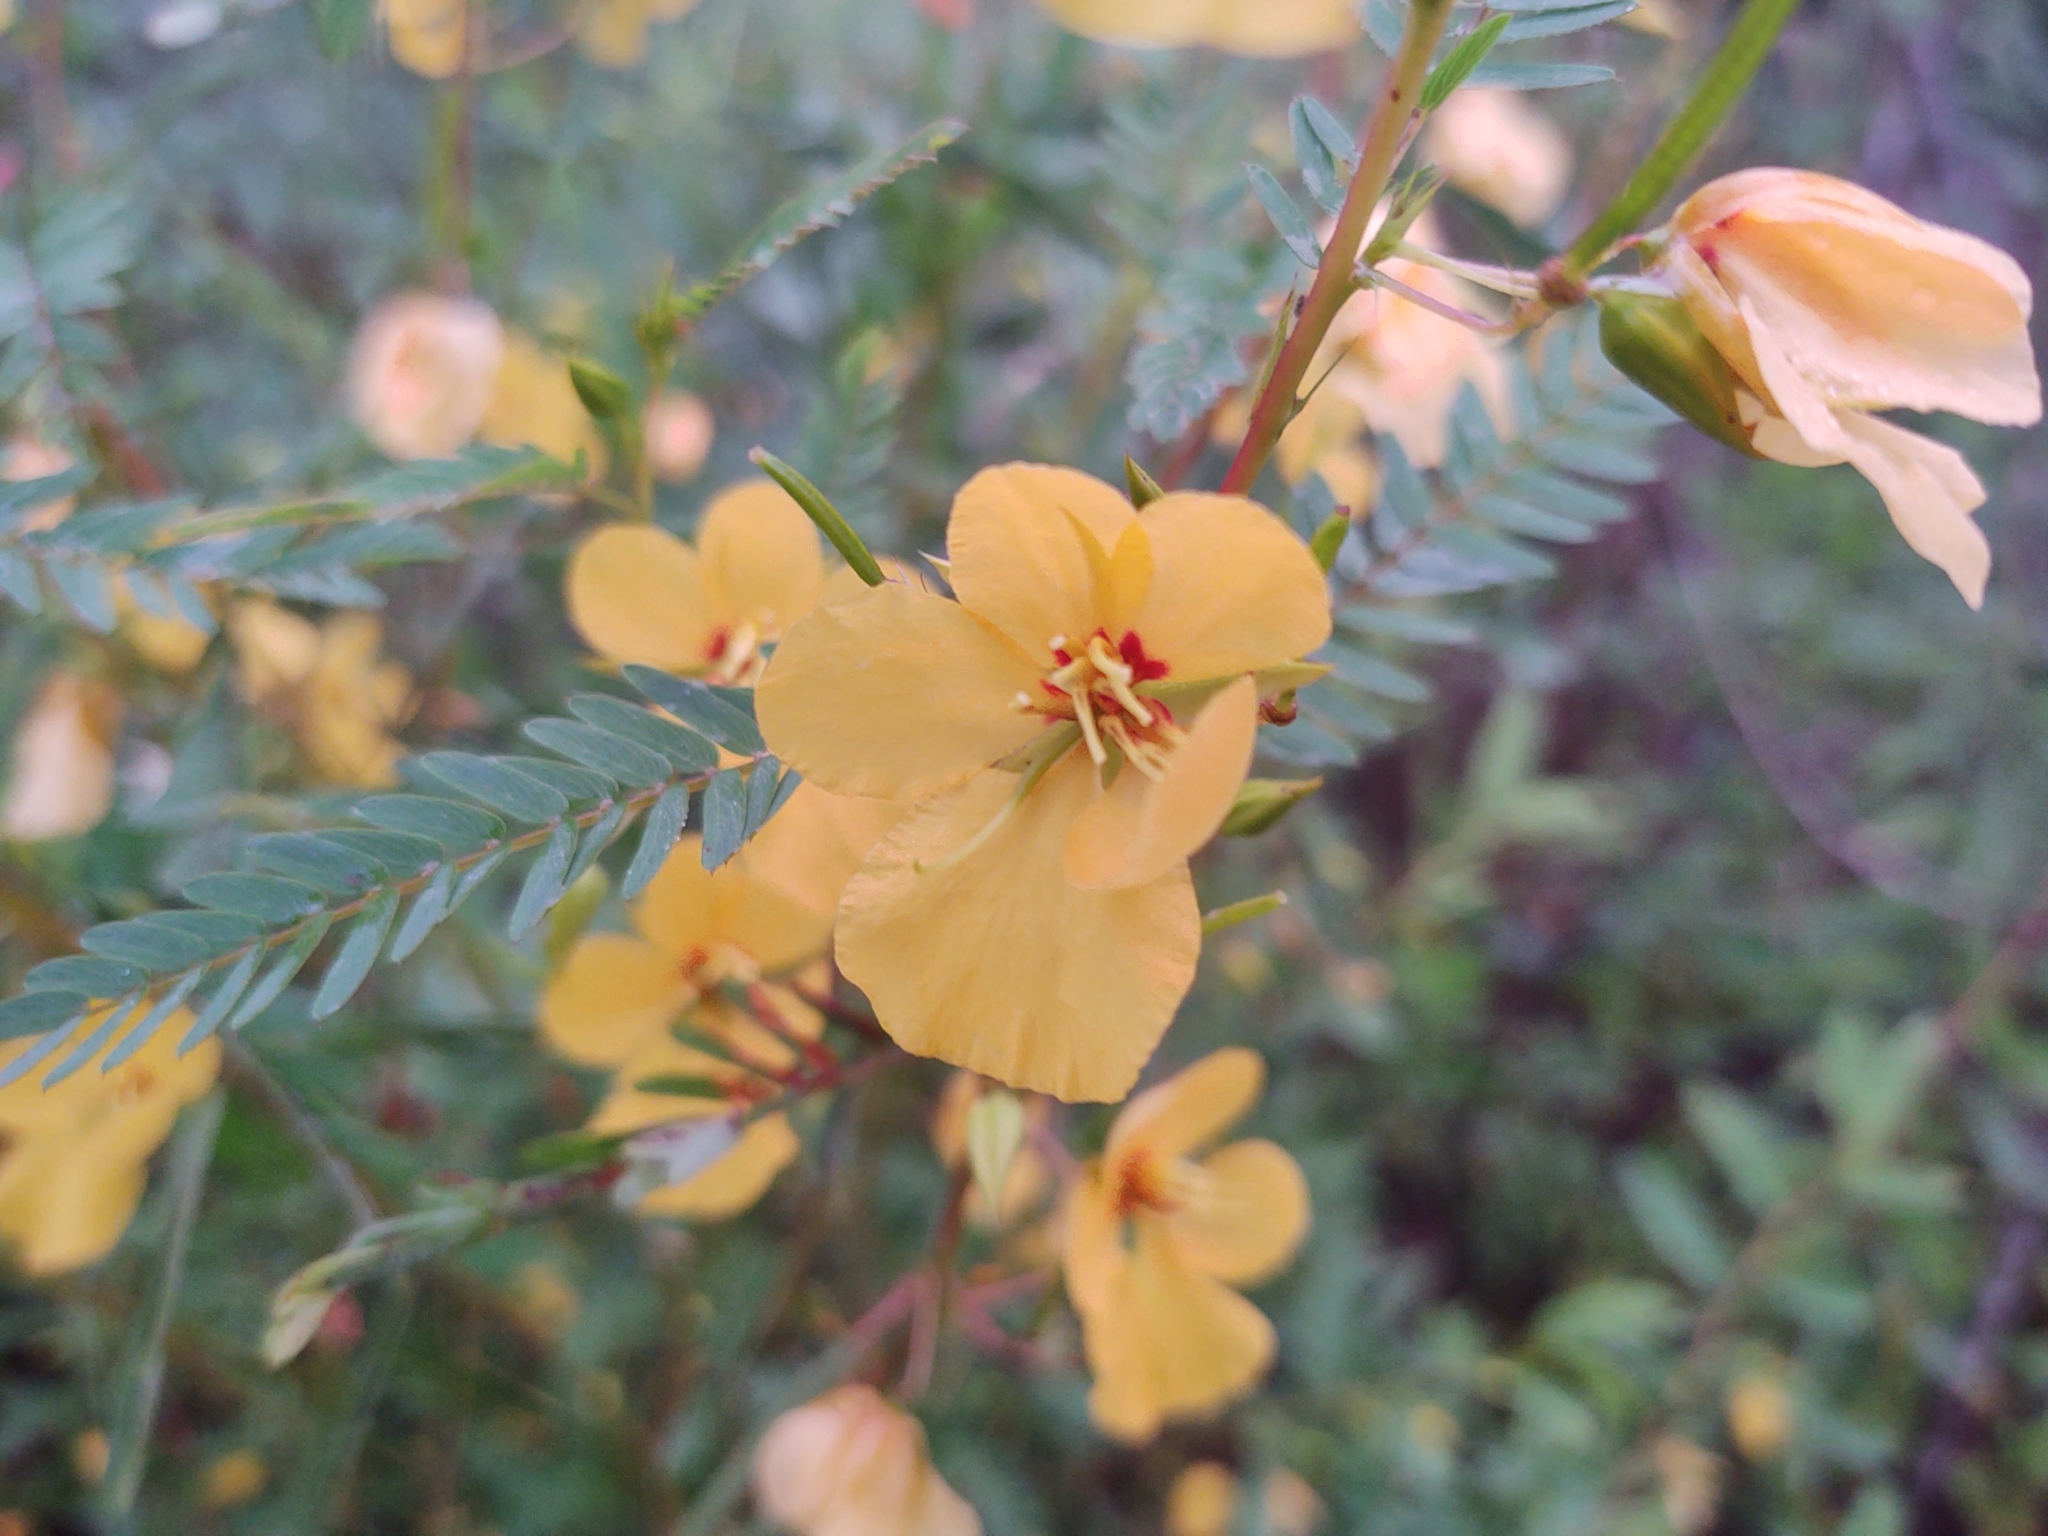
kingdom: Plantae
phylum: Tracheophyta
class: Magnoliopsida
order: Fabales
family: Fabaceae
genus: Chamaecrista
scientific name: Chamaecrista fasciculata
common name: Golden cassia
